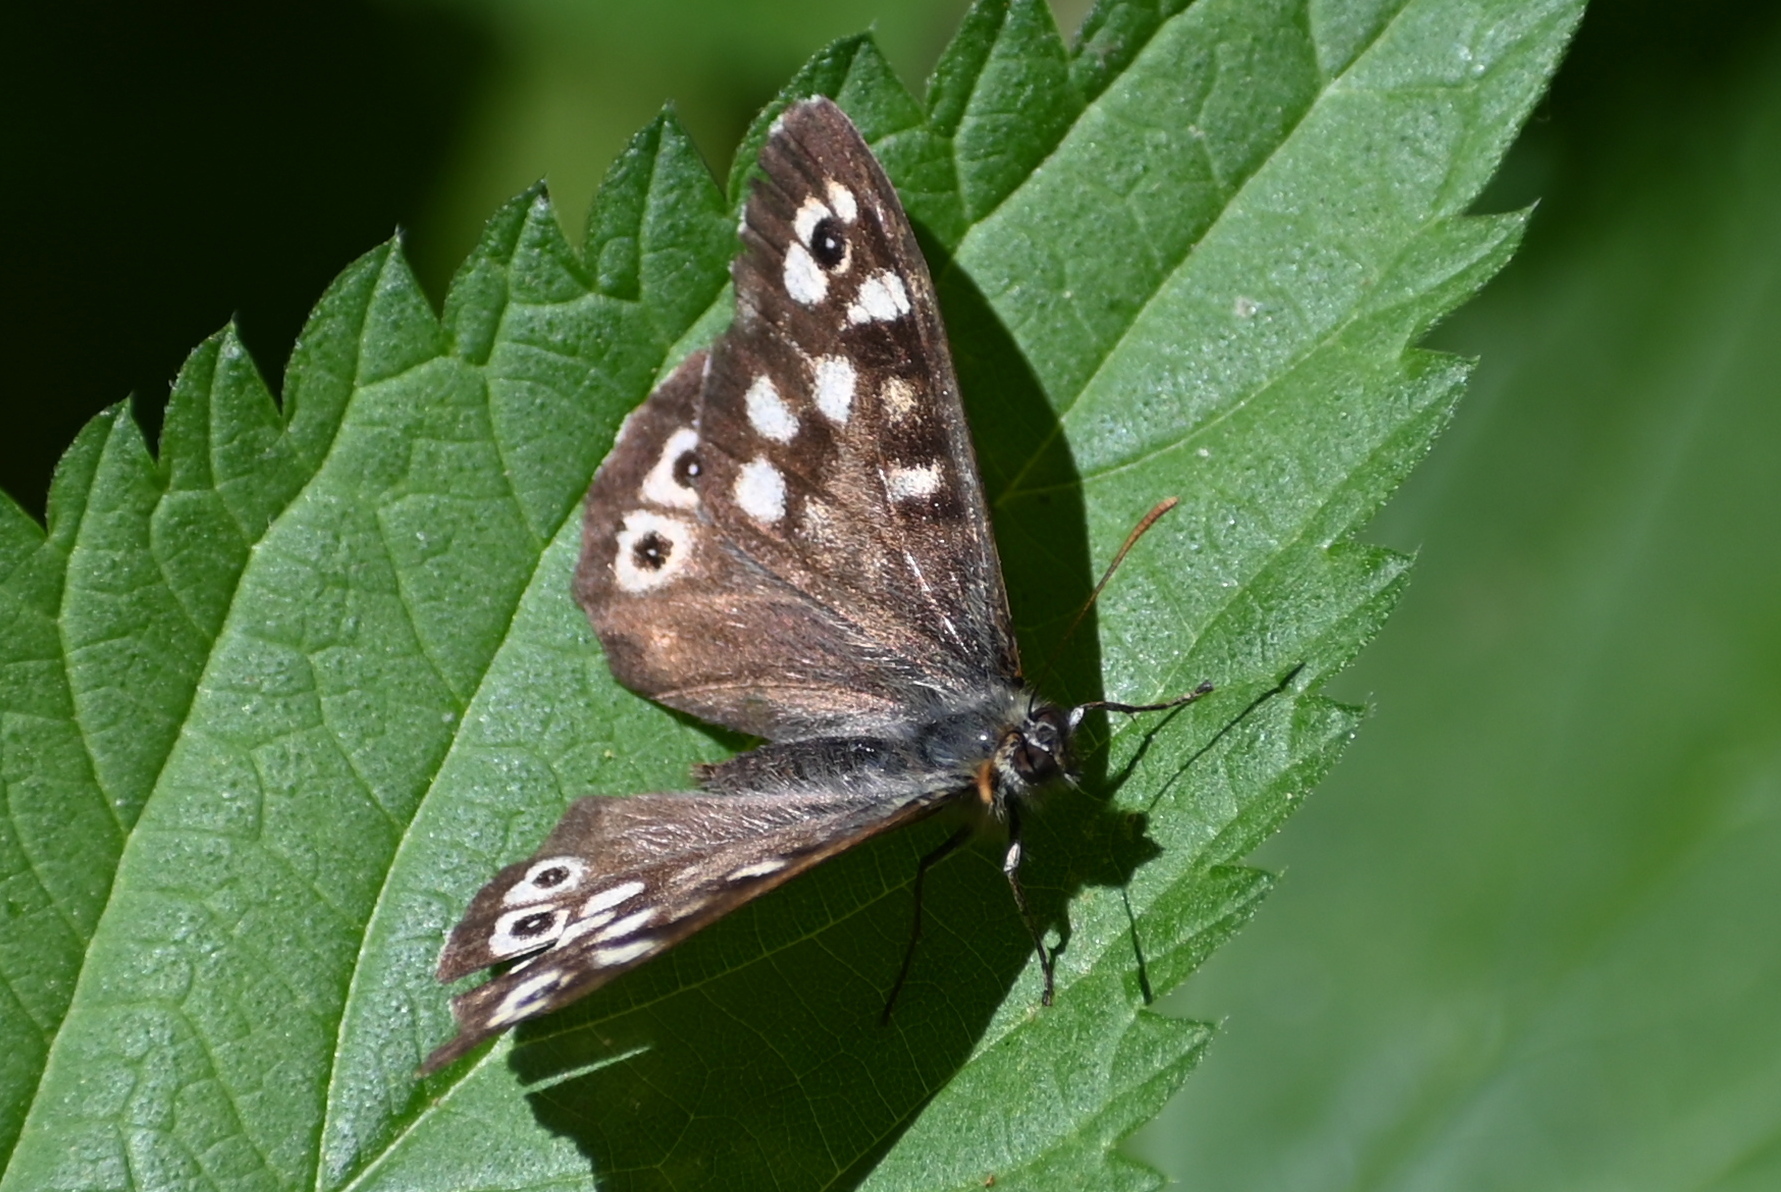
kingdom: Animalia
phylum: Arthropoda
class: Insecta
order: Lepidoptera
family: Nymphalidae
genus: Pararge
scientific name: Pararge aegeria
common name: Speckled wood
